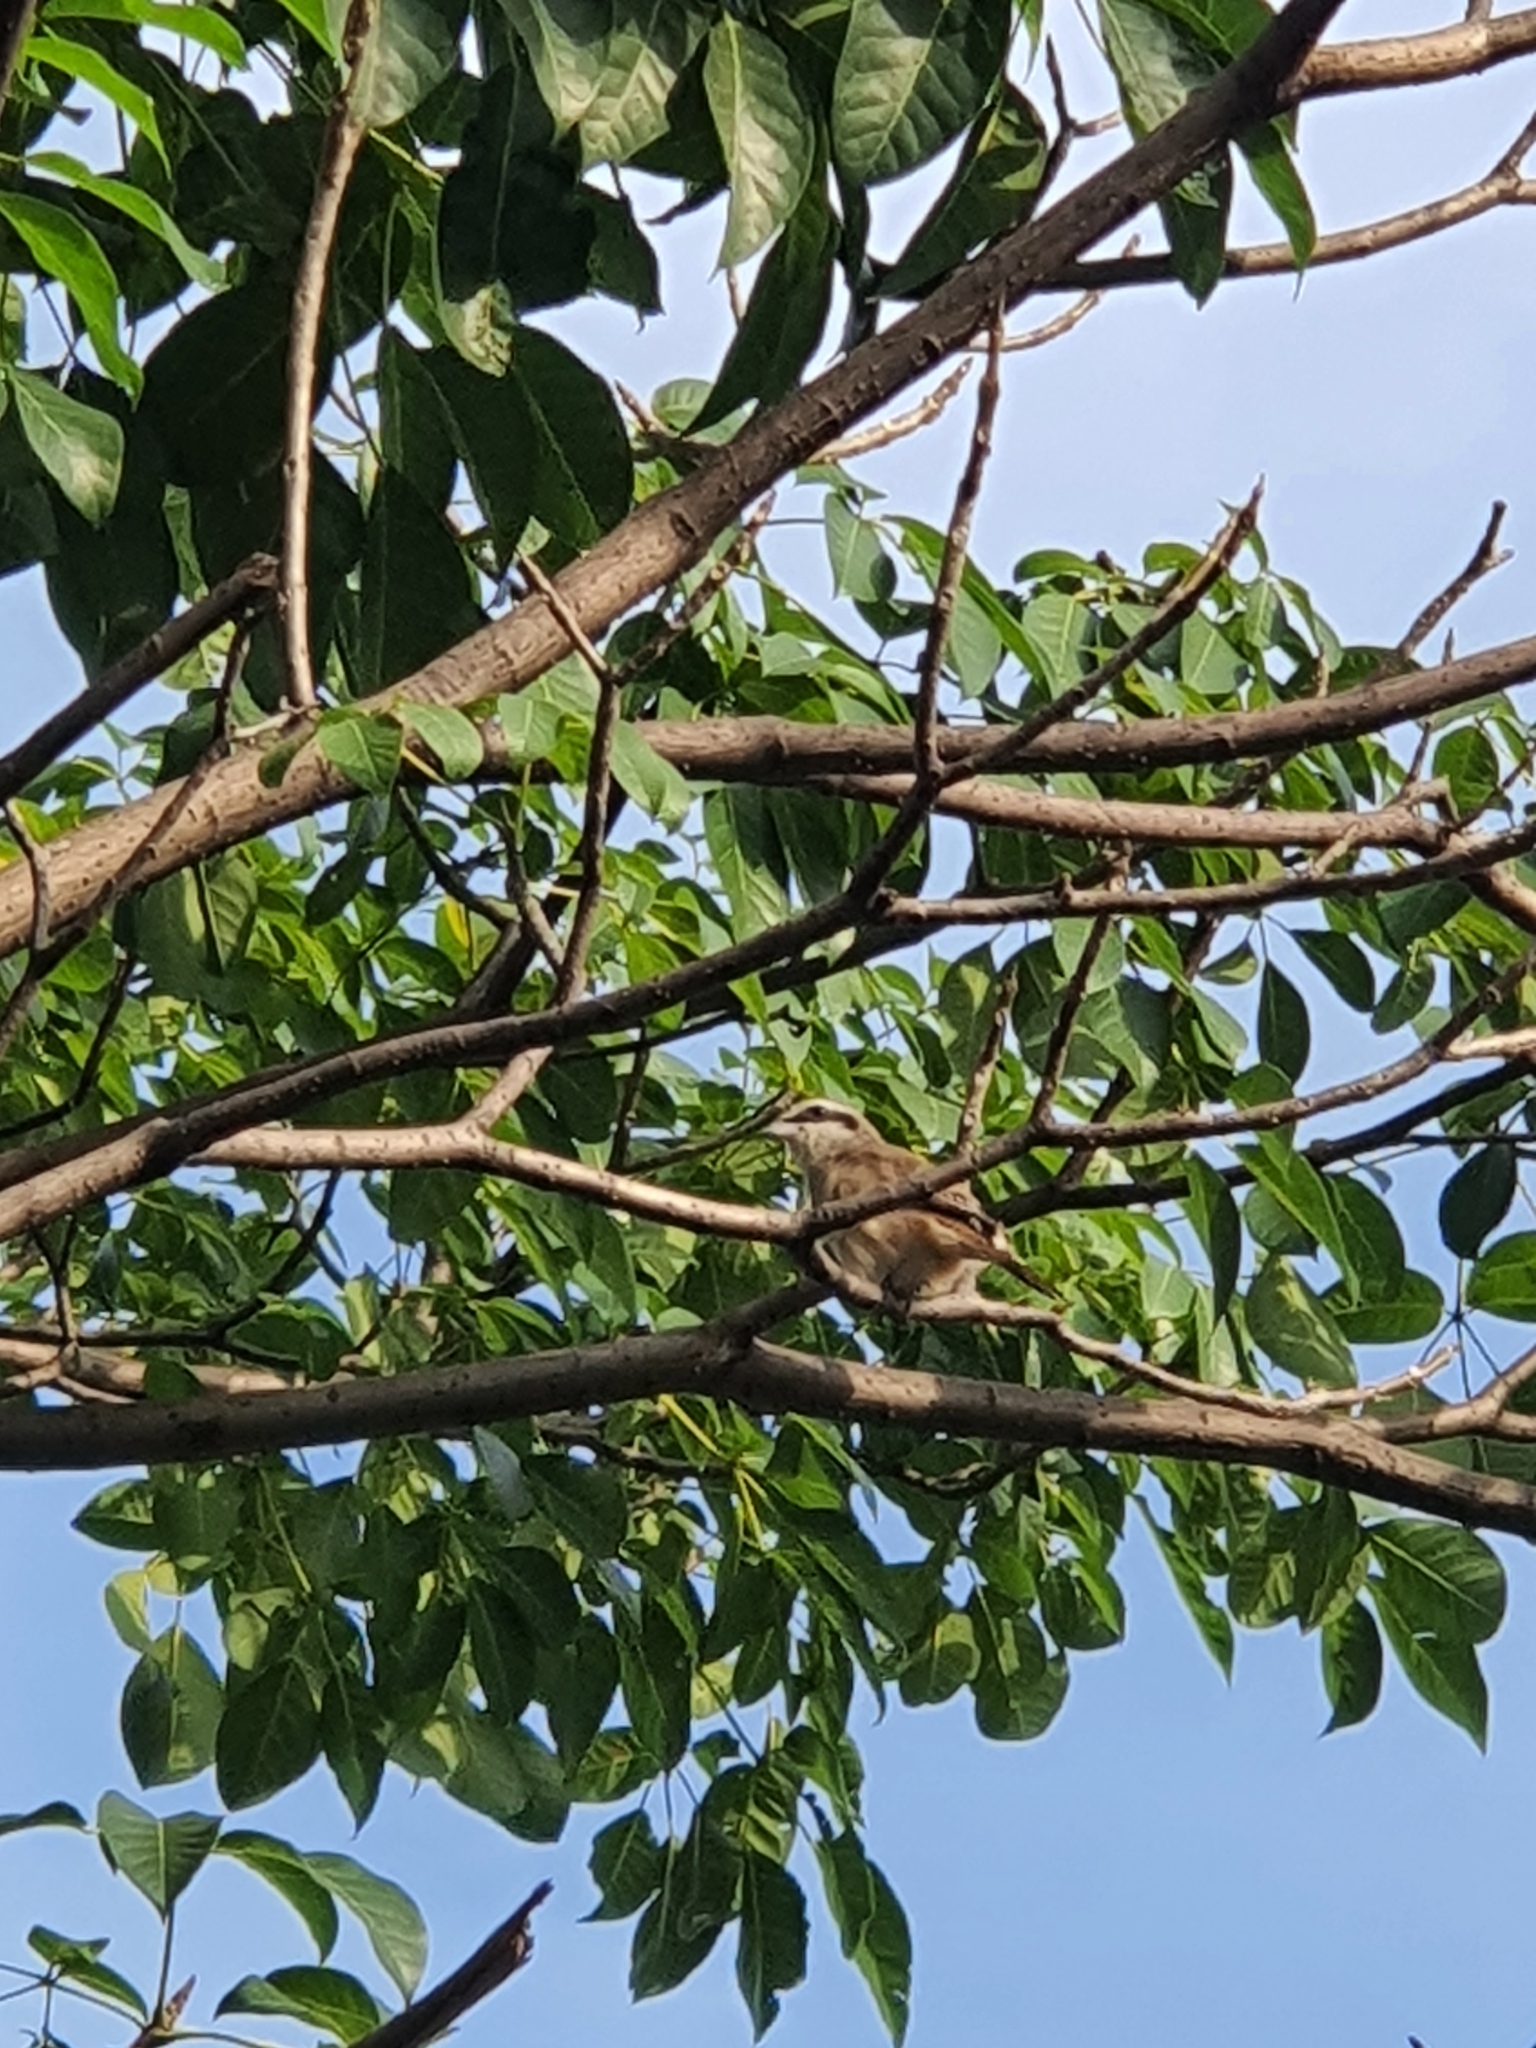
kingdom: Animalia
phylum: Chordata
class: Aves
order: Passeriformes
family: Laniidae
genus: Lanius
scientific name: Lanius cristatus
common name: Brown shrike
